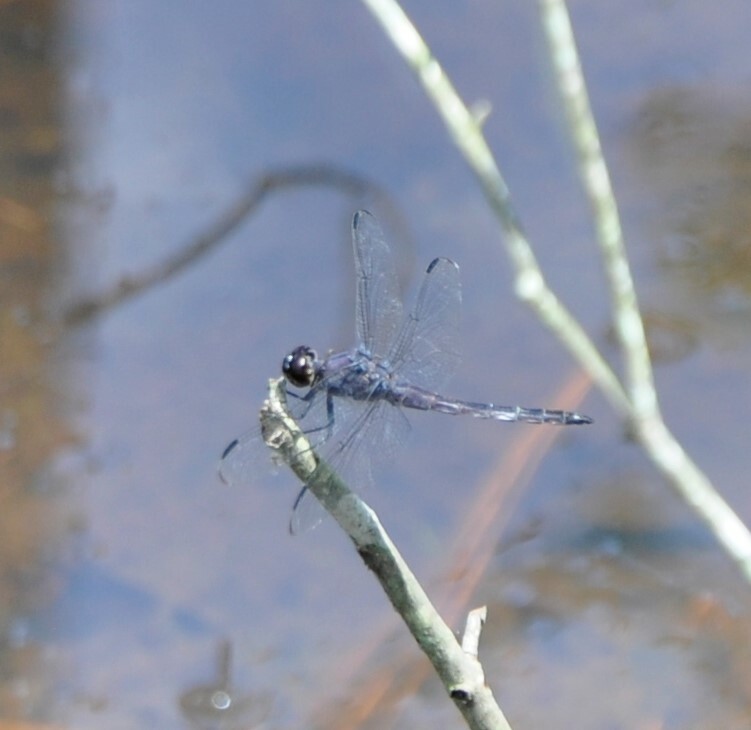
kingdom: Animalia
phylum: Arthropoda
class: Insecta
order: Odonata
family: Libellulidae
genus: Libellula
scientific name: Libellula incesta
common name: Slaty skimmer
